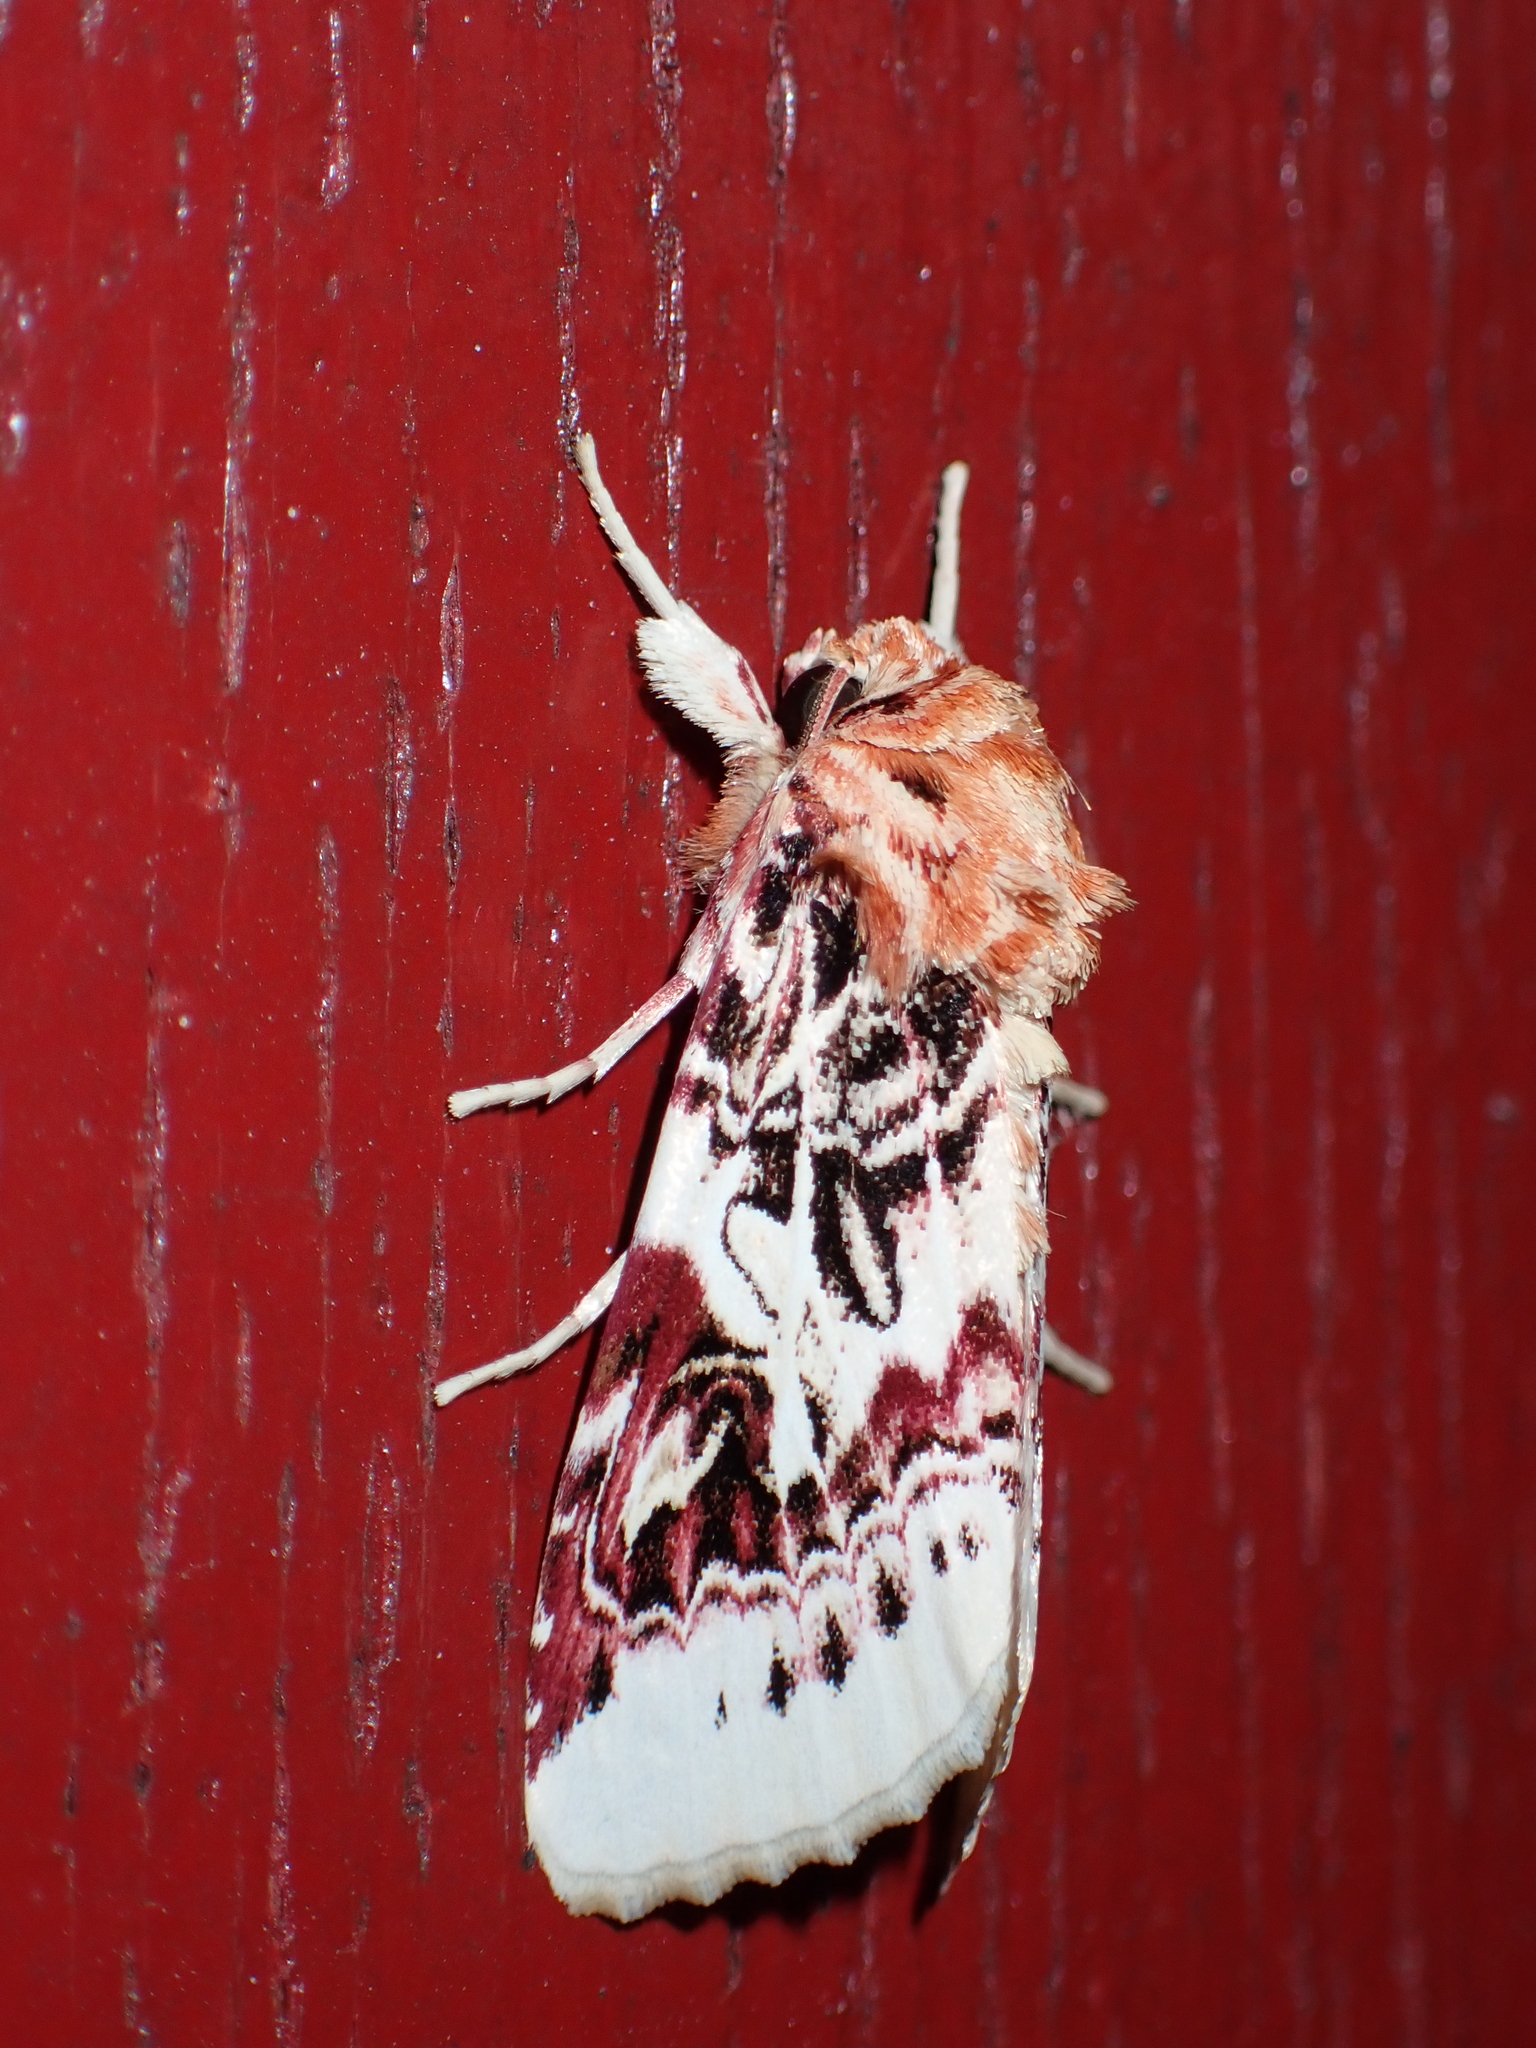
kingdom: Animalia
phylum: Arthropoda
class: Insecta
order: Lepidoptera
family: Noctuidae
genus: Spodoptera
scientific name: Spodoptera picta
